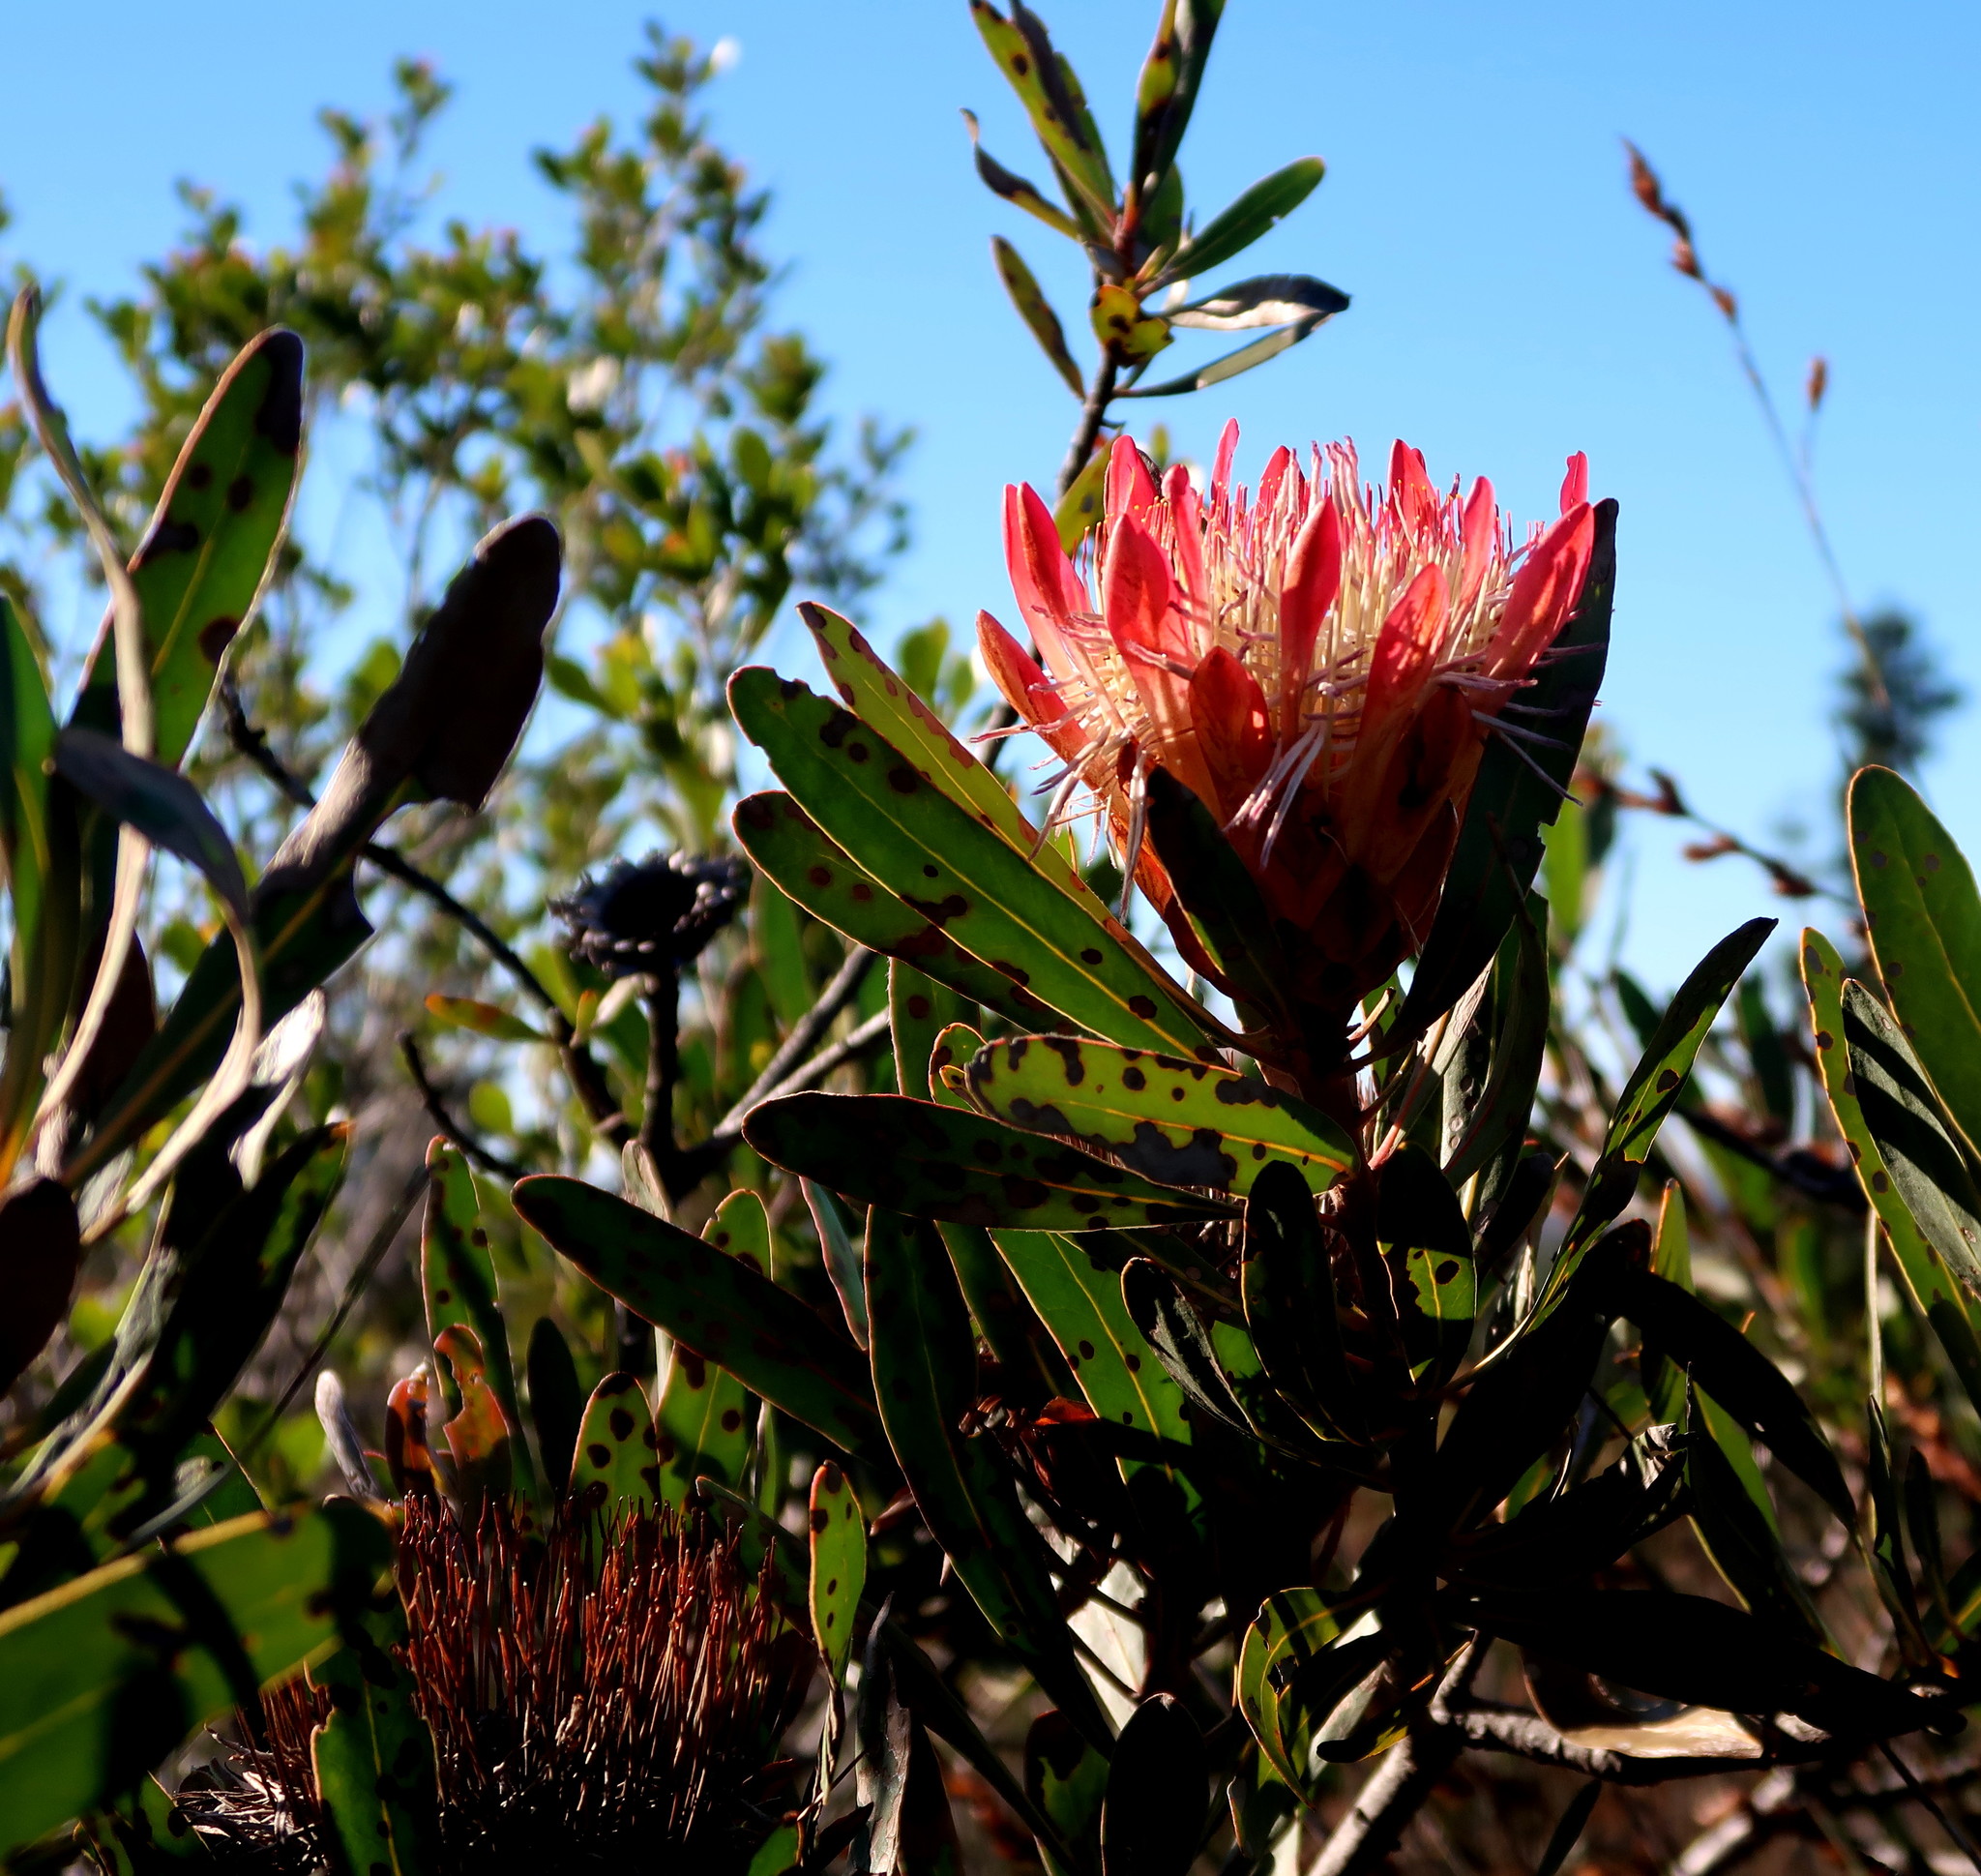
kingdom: Plantae
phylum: Tracheophyta
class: Magnoliopsida
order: Proteales
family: Proteaceae
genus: Protea
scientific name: Protea susannae
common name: Foetid-leaf sugarbush
